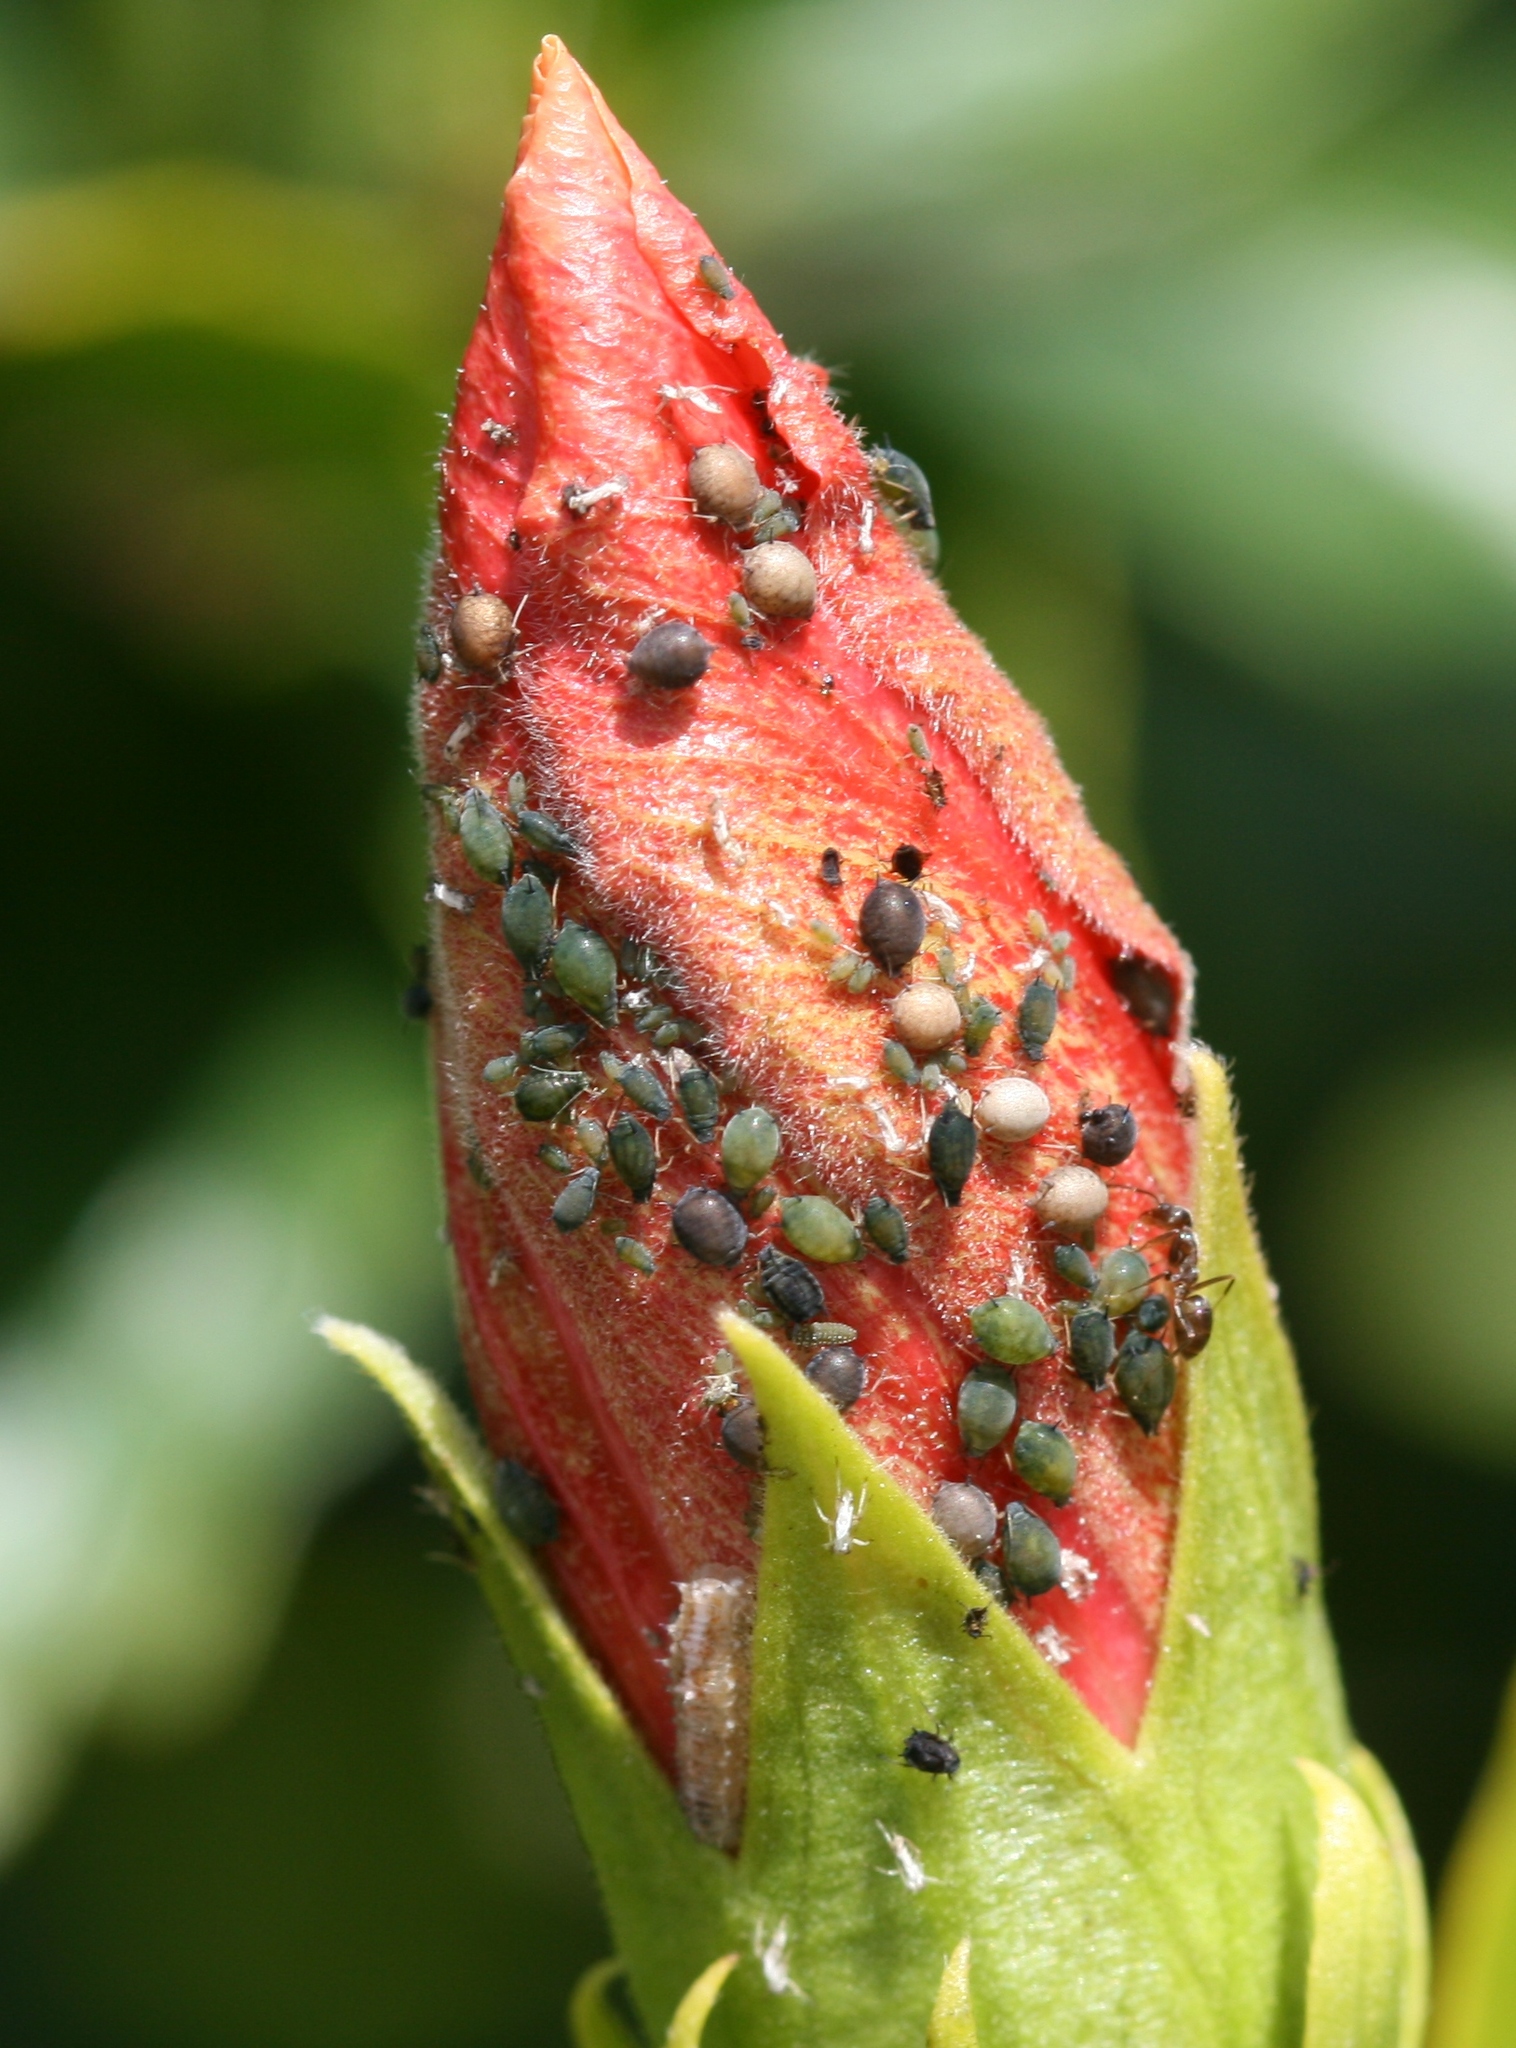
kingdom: Animalia
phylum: Arthropoda
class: Insecta
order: Hemiptera
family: Aphididae
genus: Aphis
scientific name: Aphis gossypii
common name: Melon aphid
